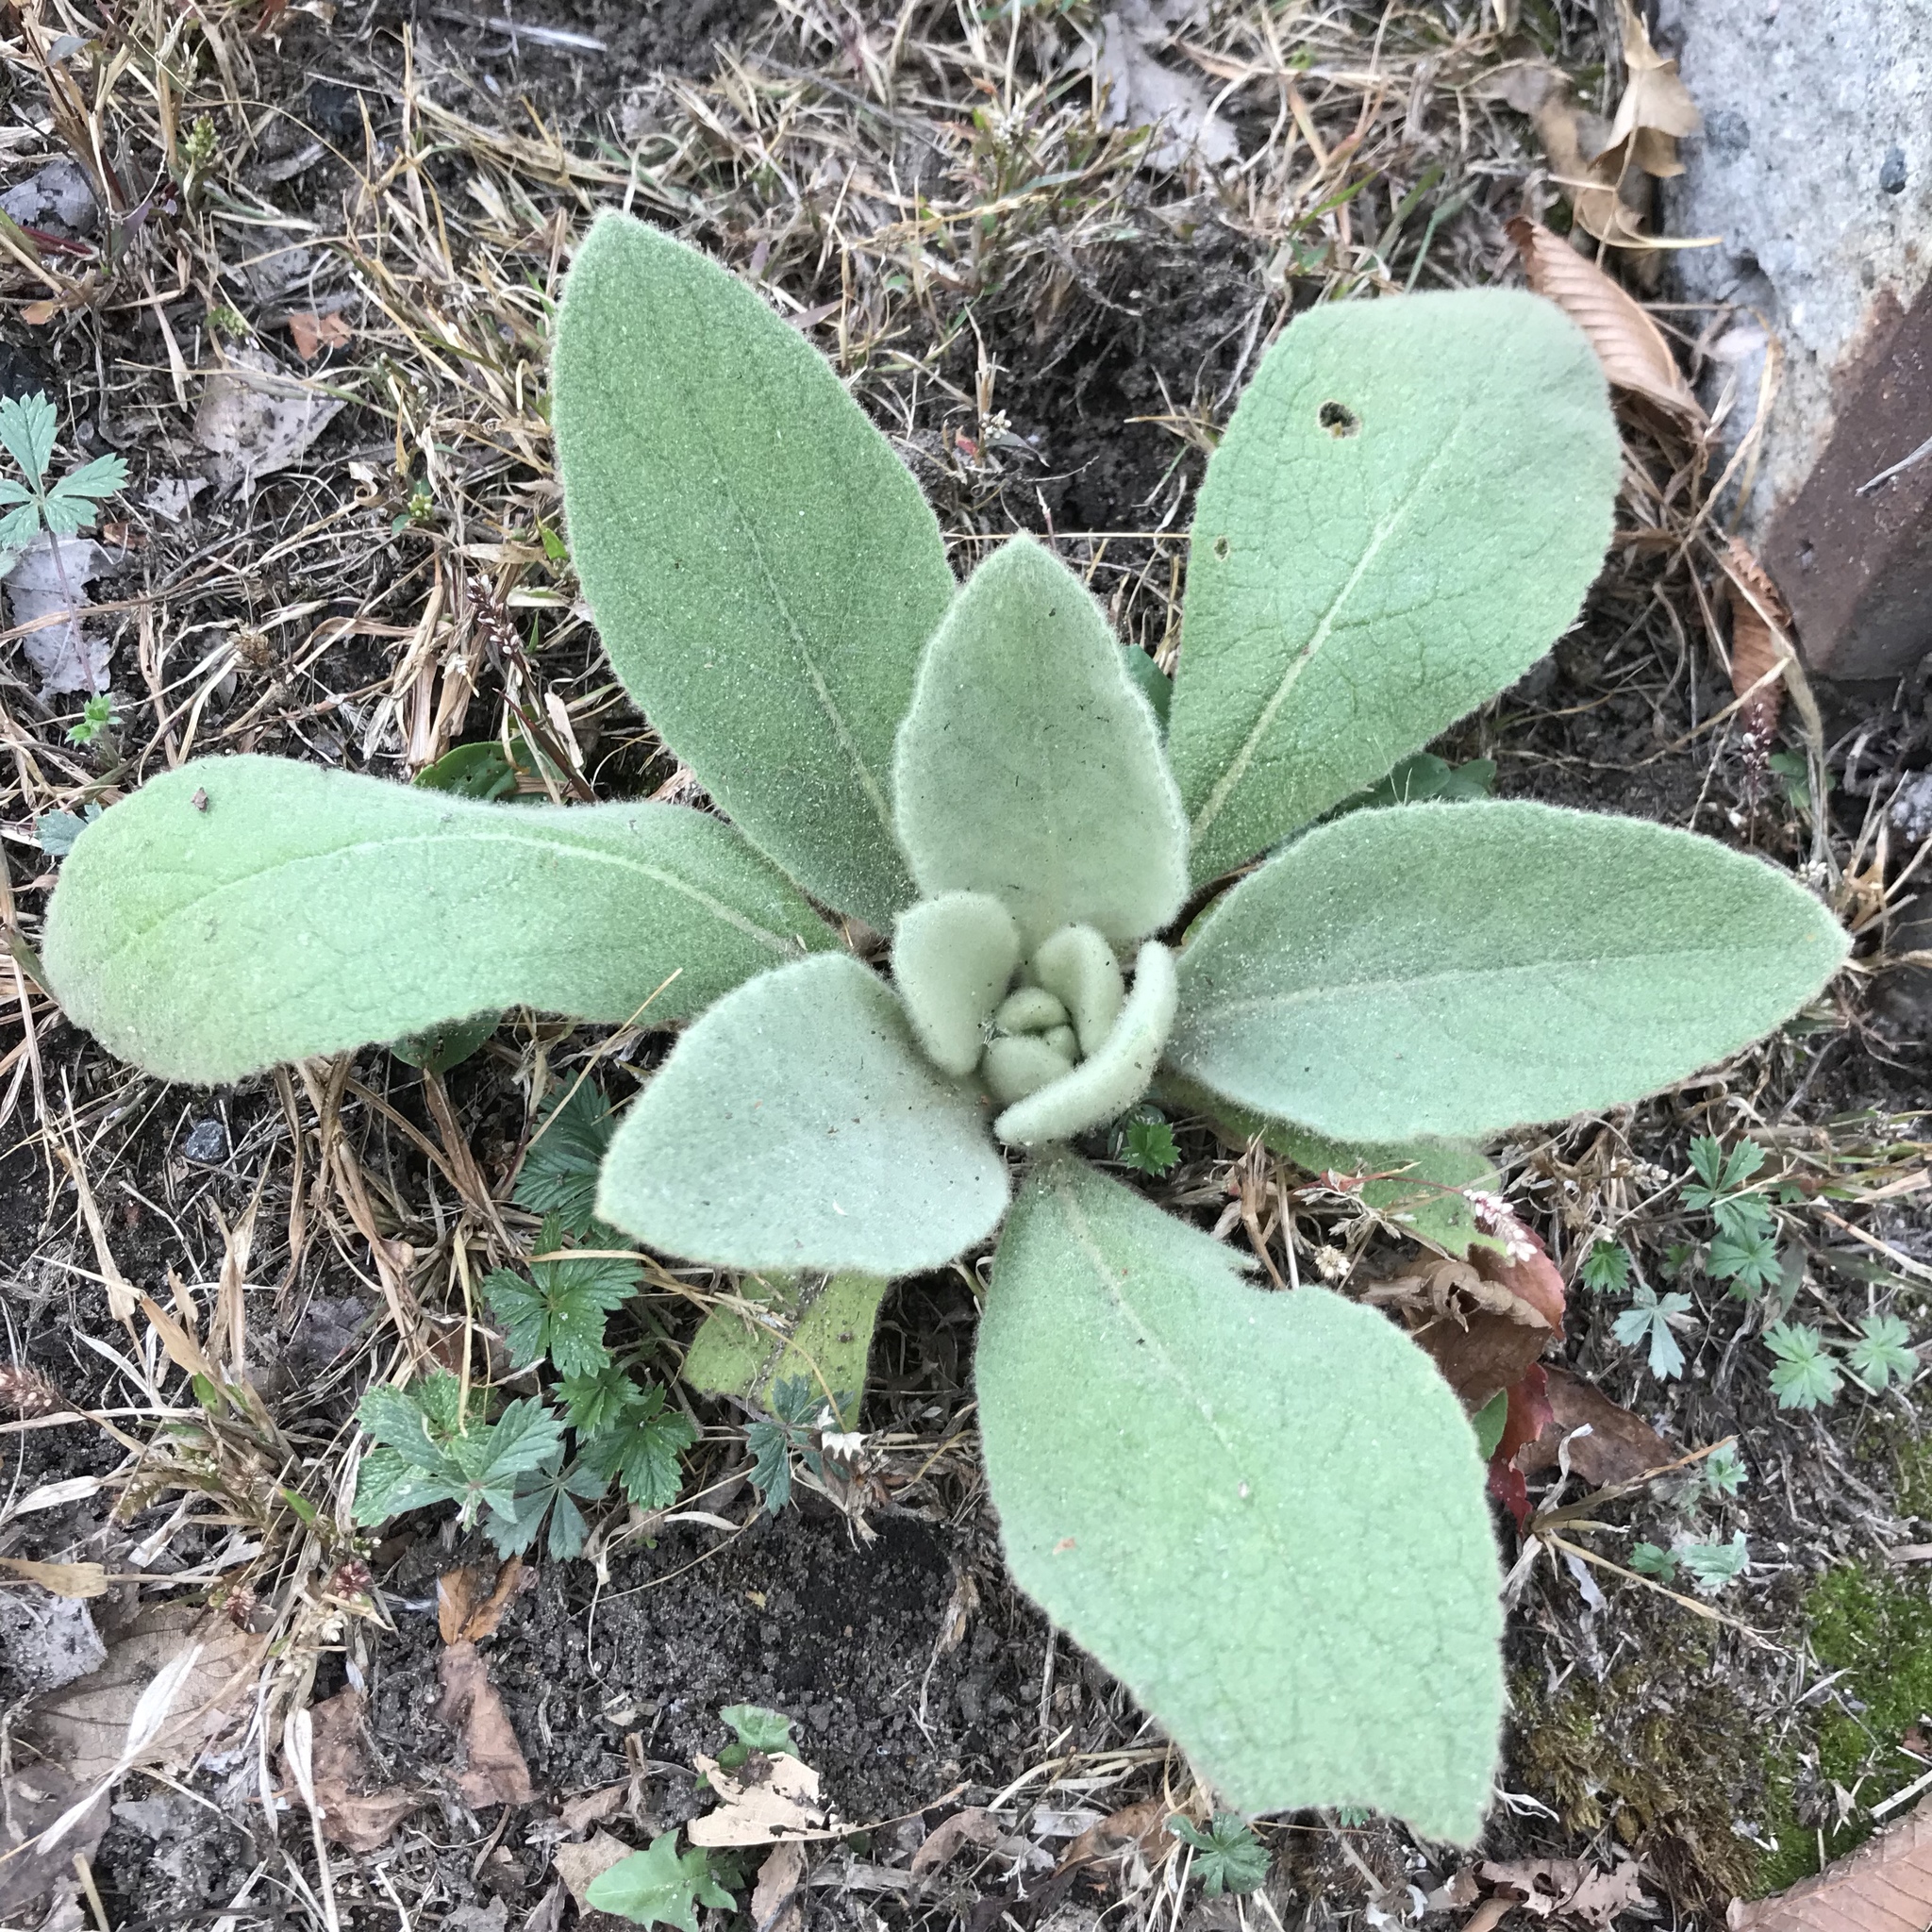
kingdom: Plantae
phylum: Tracheophyta
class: Magnoliopsida
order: Lamiales
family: Scrophulariaceae
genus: Verbascum
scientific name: Verbascum thapsus
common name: Common mullein
